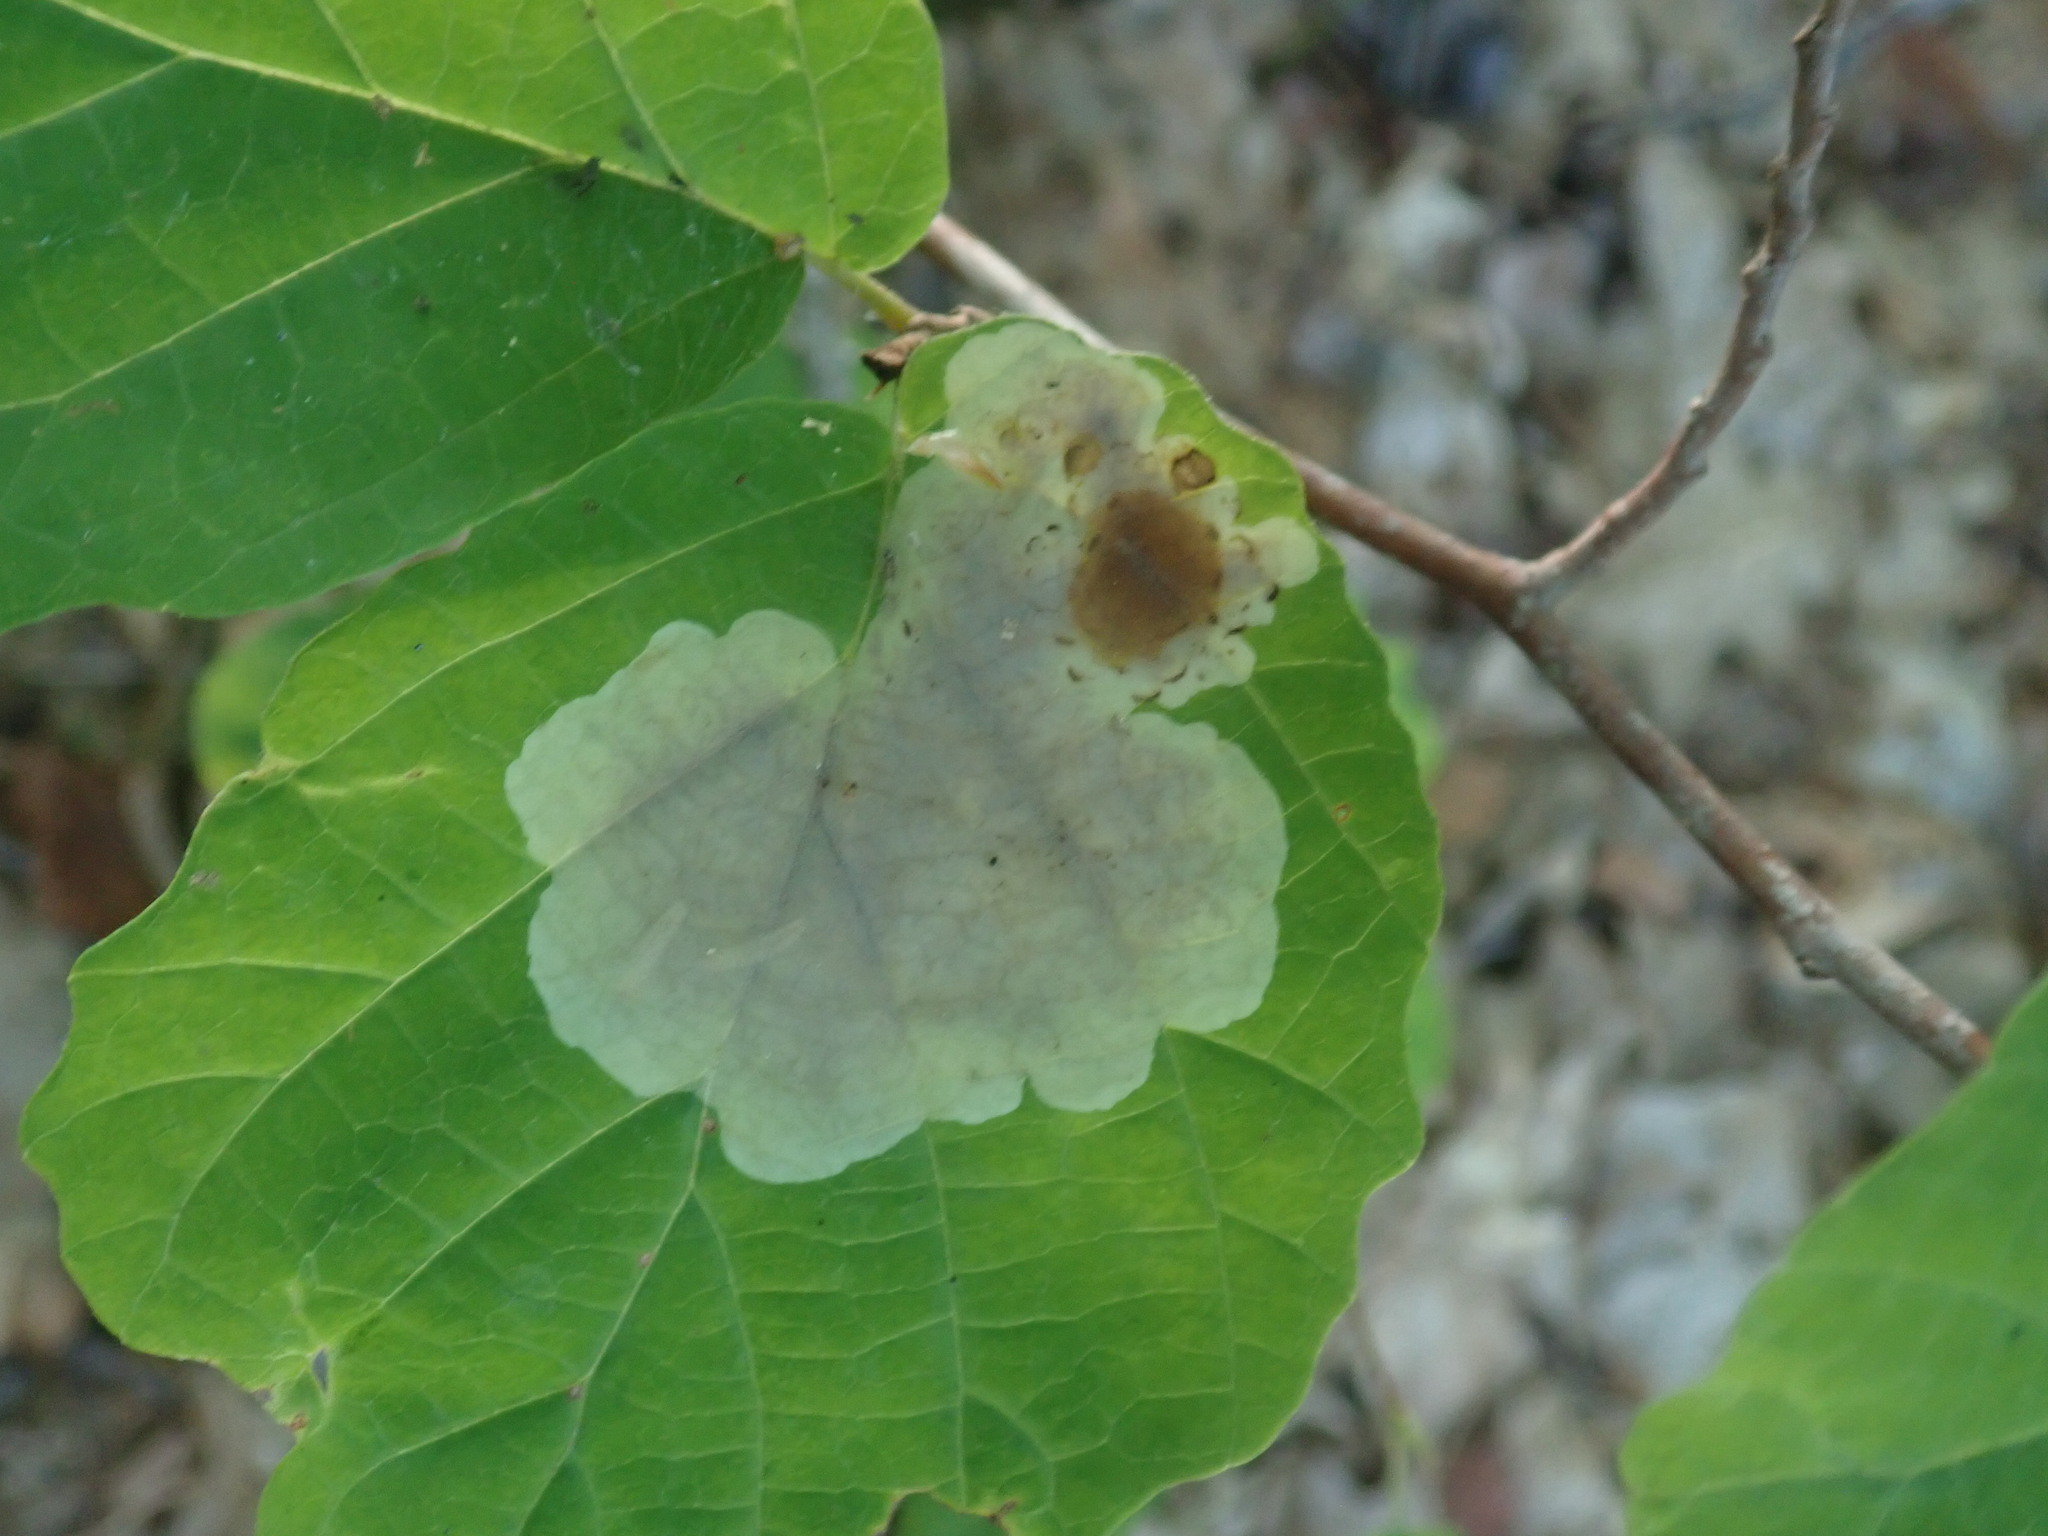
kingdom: Animalia
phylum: Arthropoda
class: Insecta
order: Lepidoptera
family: Gracillariidae
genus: Cameraria
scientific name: Cameraria hamameliella
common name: Witchhazel leafminer
